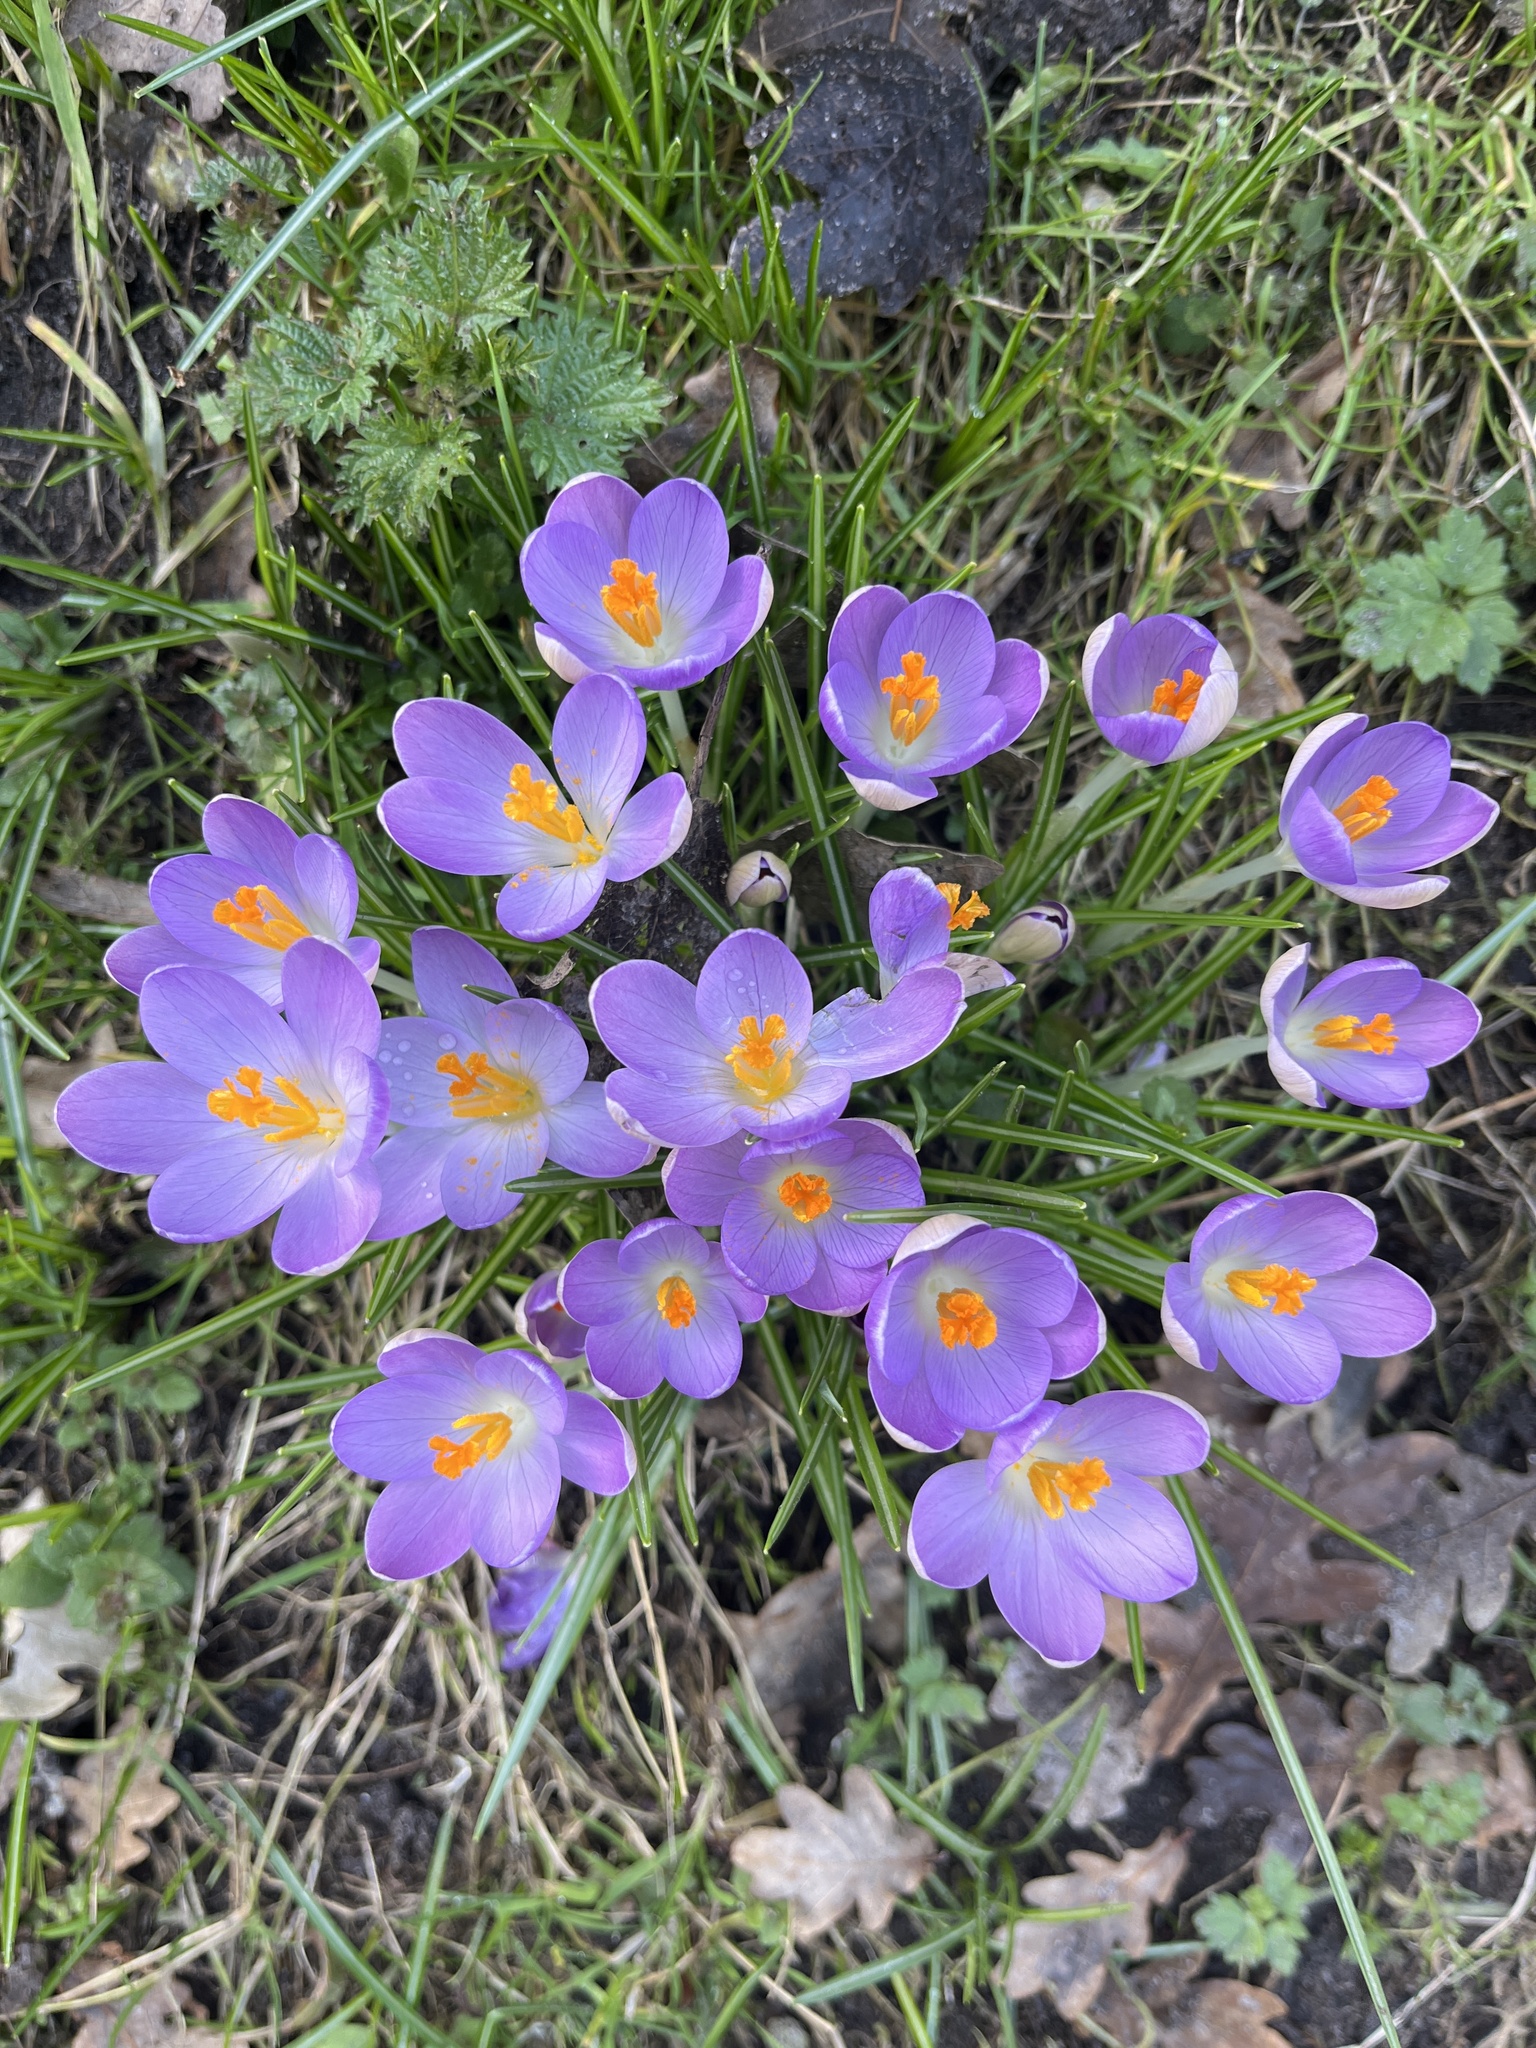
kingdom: Plantae
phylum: Tracheophyta
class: Liliopsida
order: Asparagales
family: Iridaceae
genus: Crocus
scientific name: Crocus tommasinianus
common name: Early crocus
